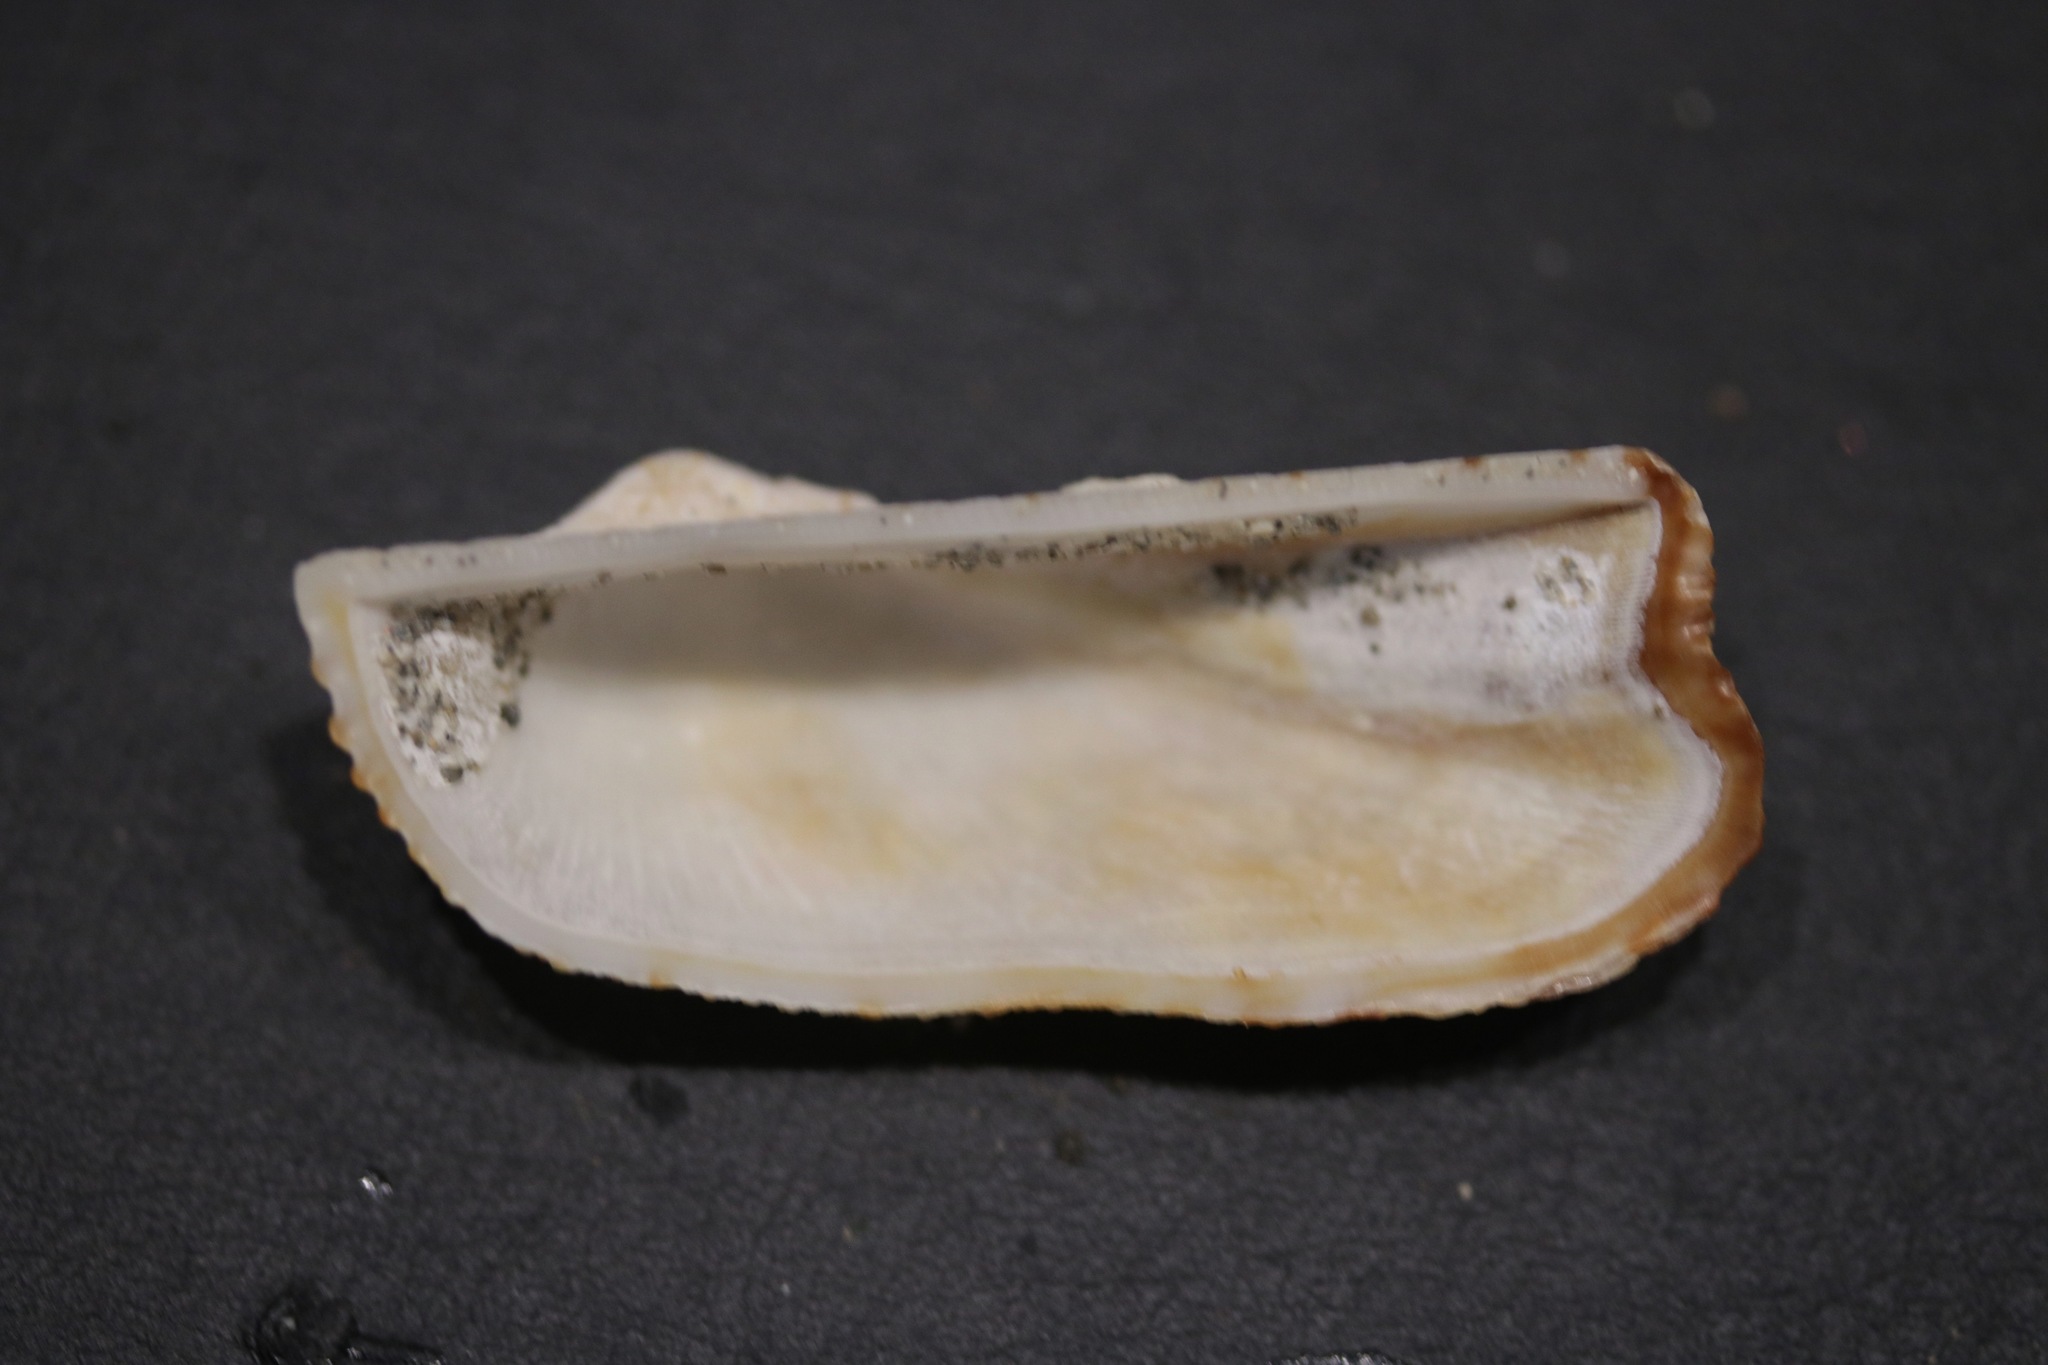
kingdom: Animalia
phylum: Mollusca
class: Bivalvia
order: Arcida
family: Arcidae
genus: Arca
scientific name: Arca noae
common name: Noah's arch
